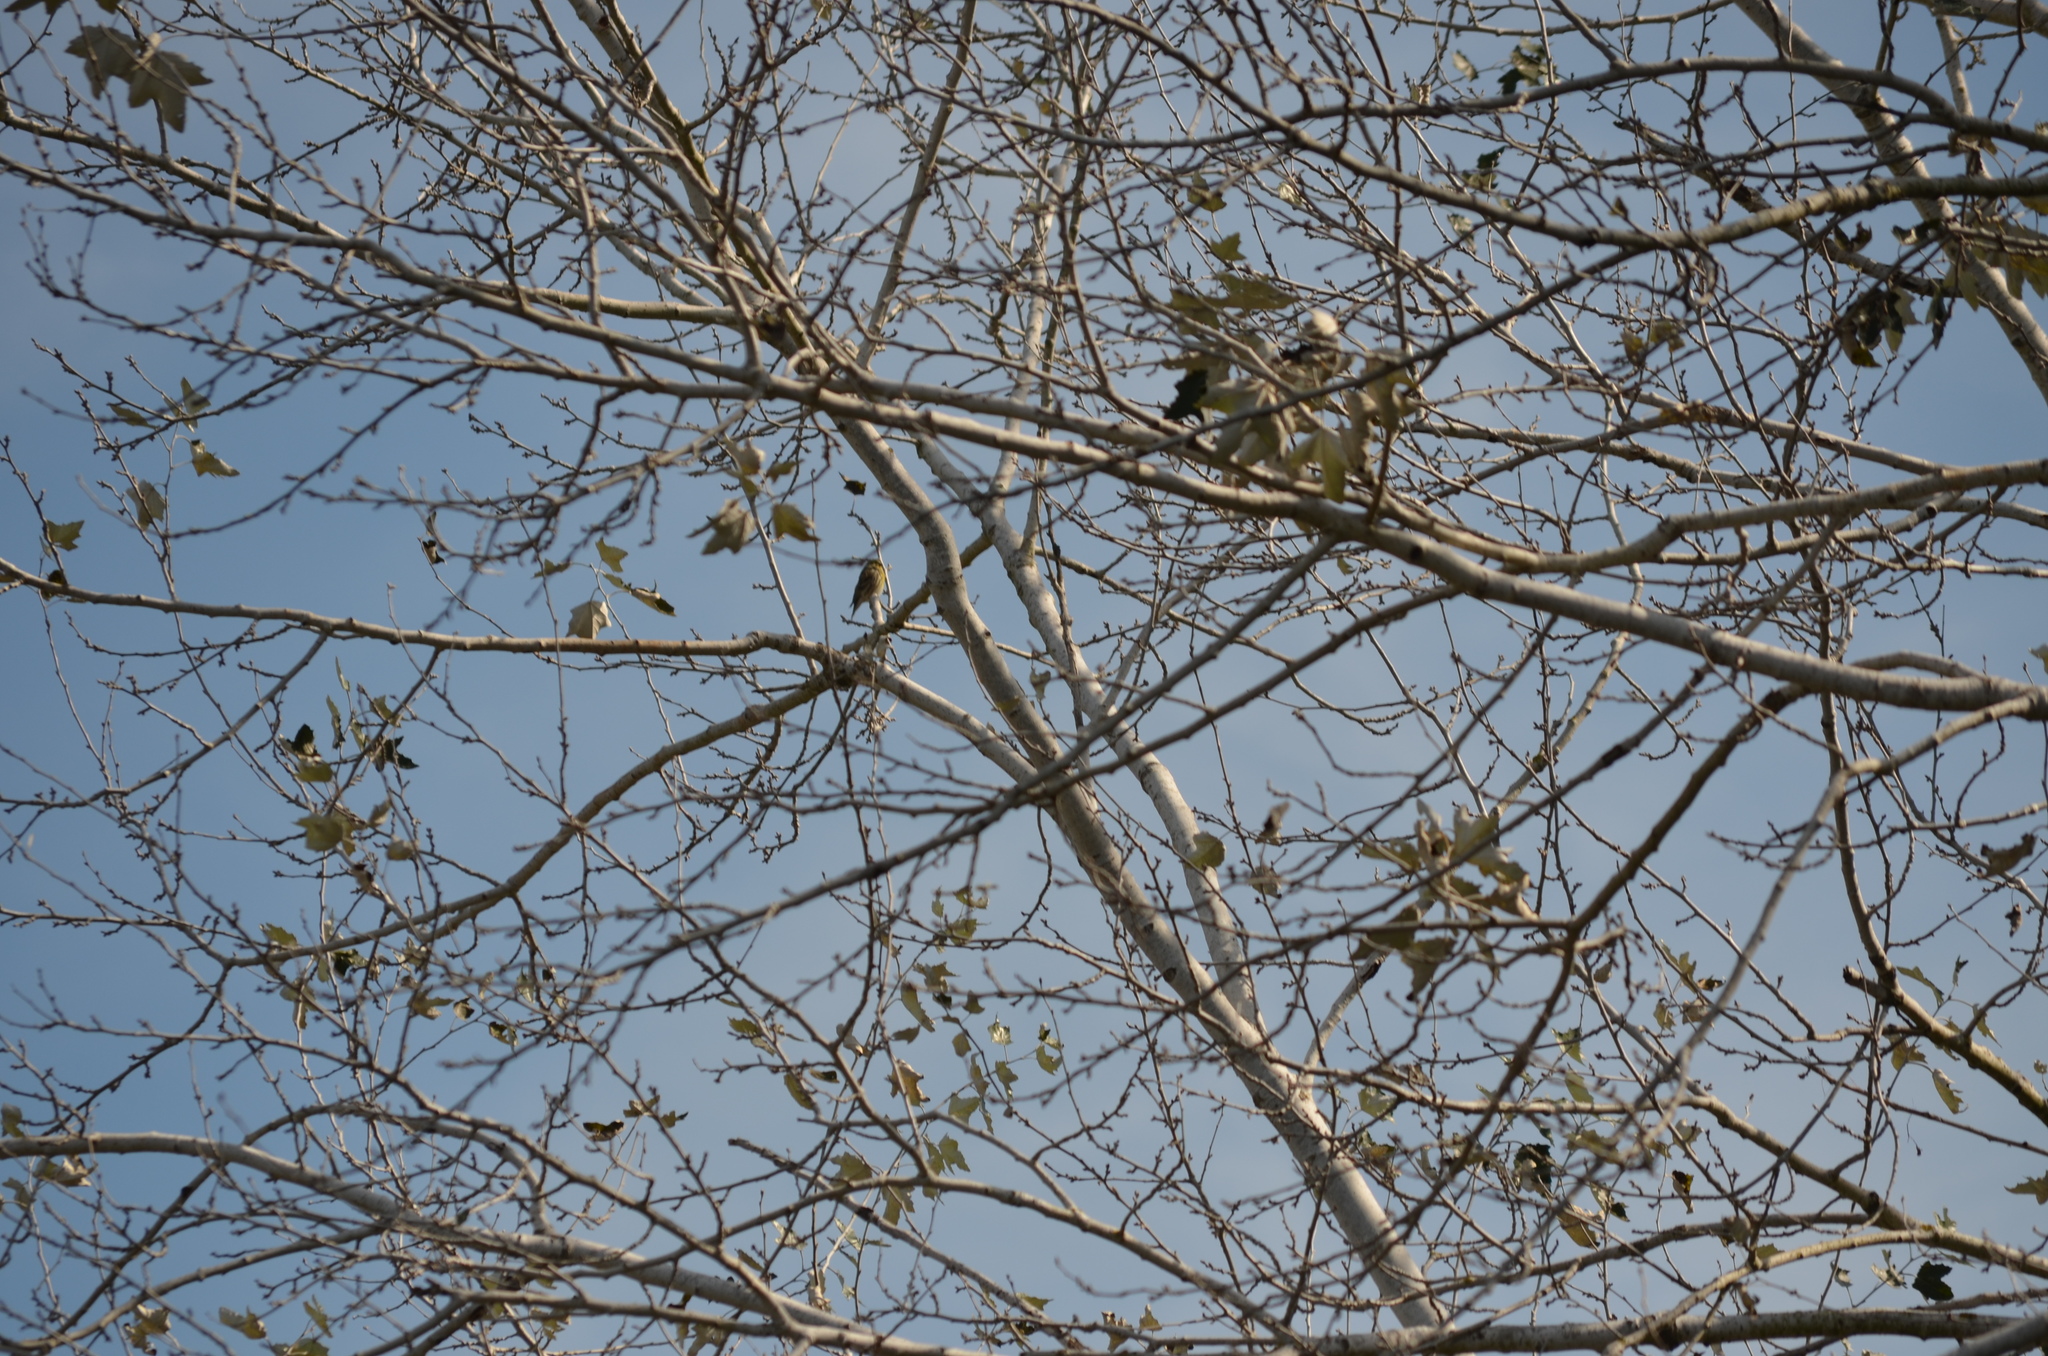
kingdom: Animalia
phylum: Chordata
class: Aves
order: Passeriformes
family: Fringillidae
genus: Serinus
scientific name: Serinus serinus
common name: European serin
